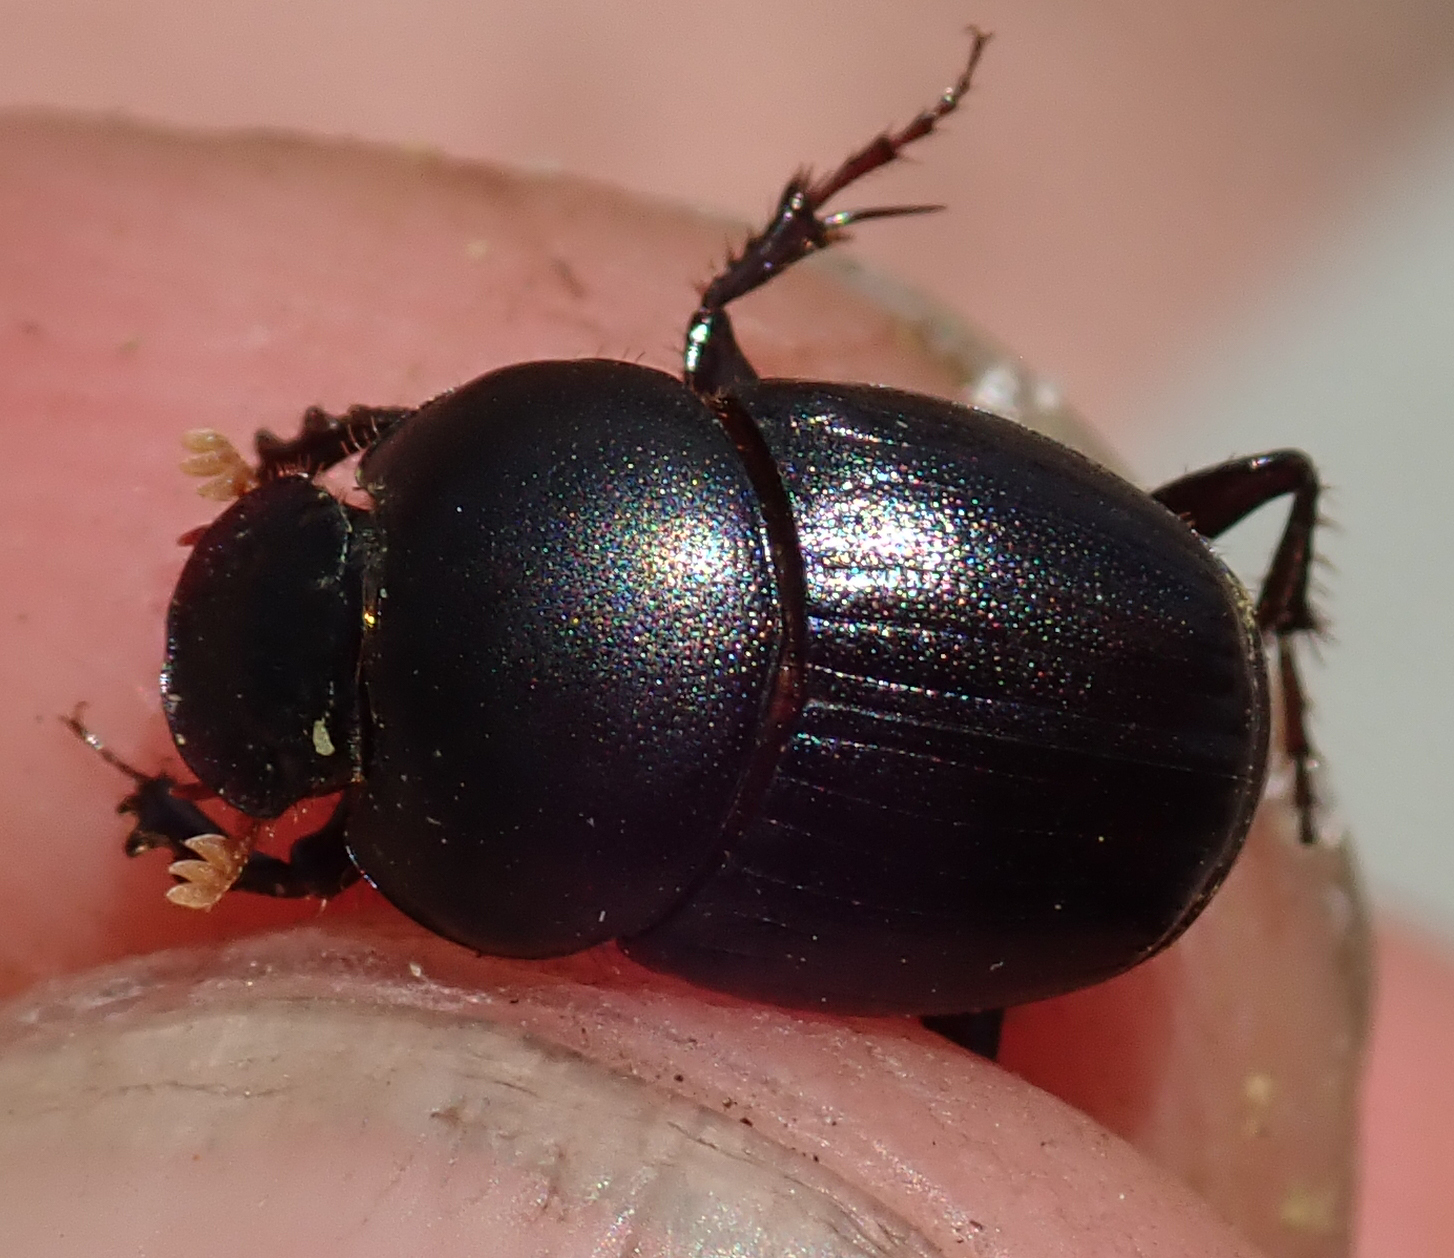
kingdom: Animalia
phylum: Arthropoda
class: Insecta
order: Coleoptera
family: Scarabaeidae
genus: Euonthophagus
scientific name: Euonthophagus carbonarius
